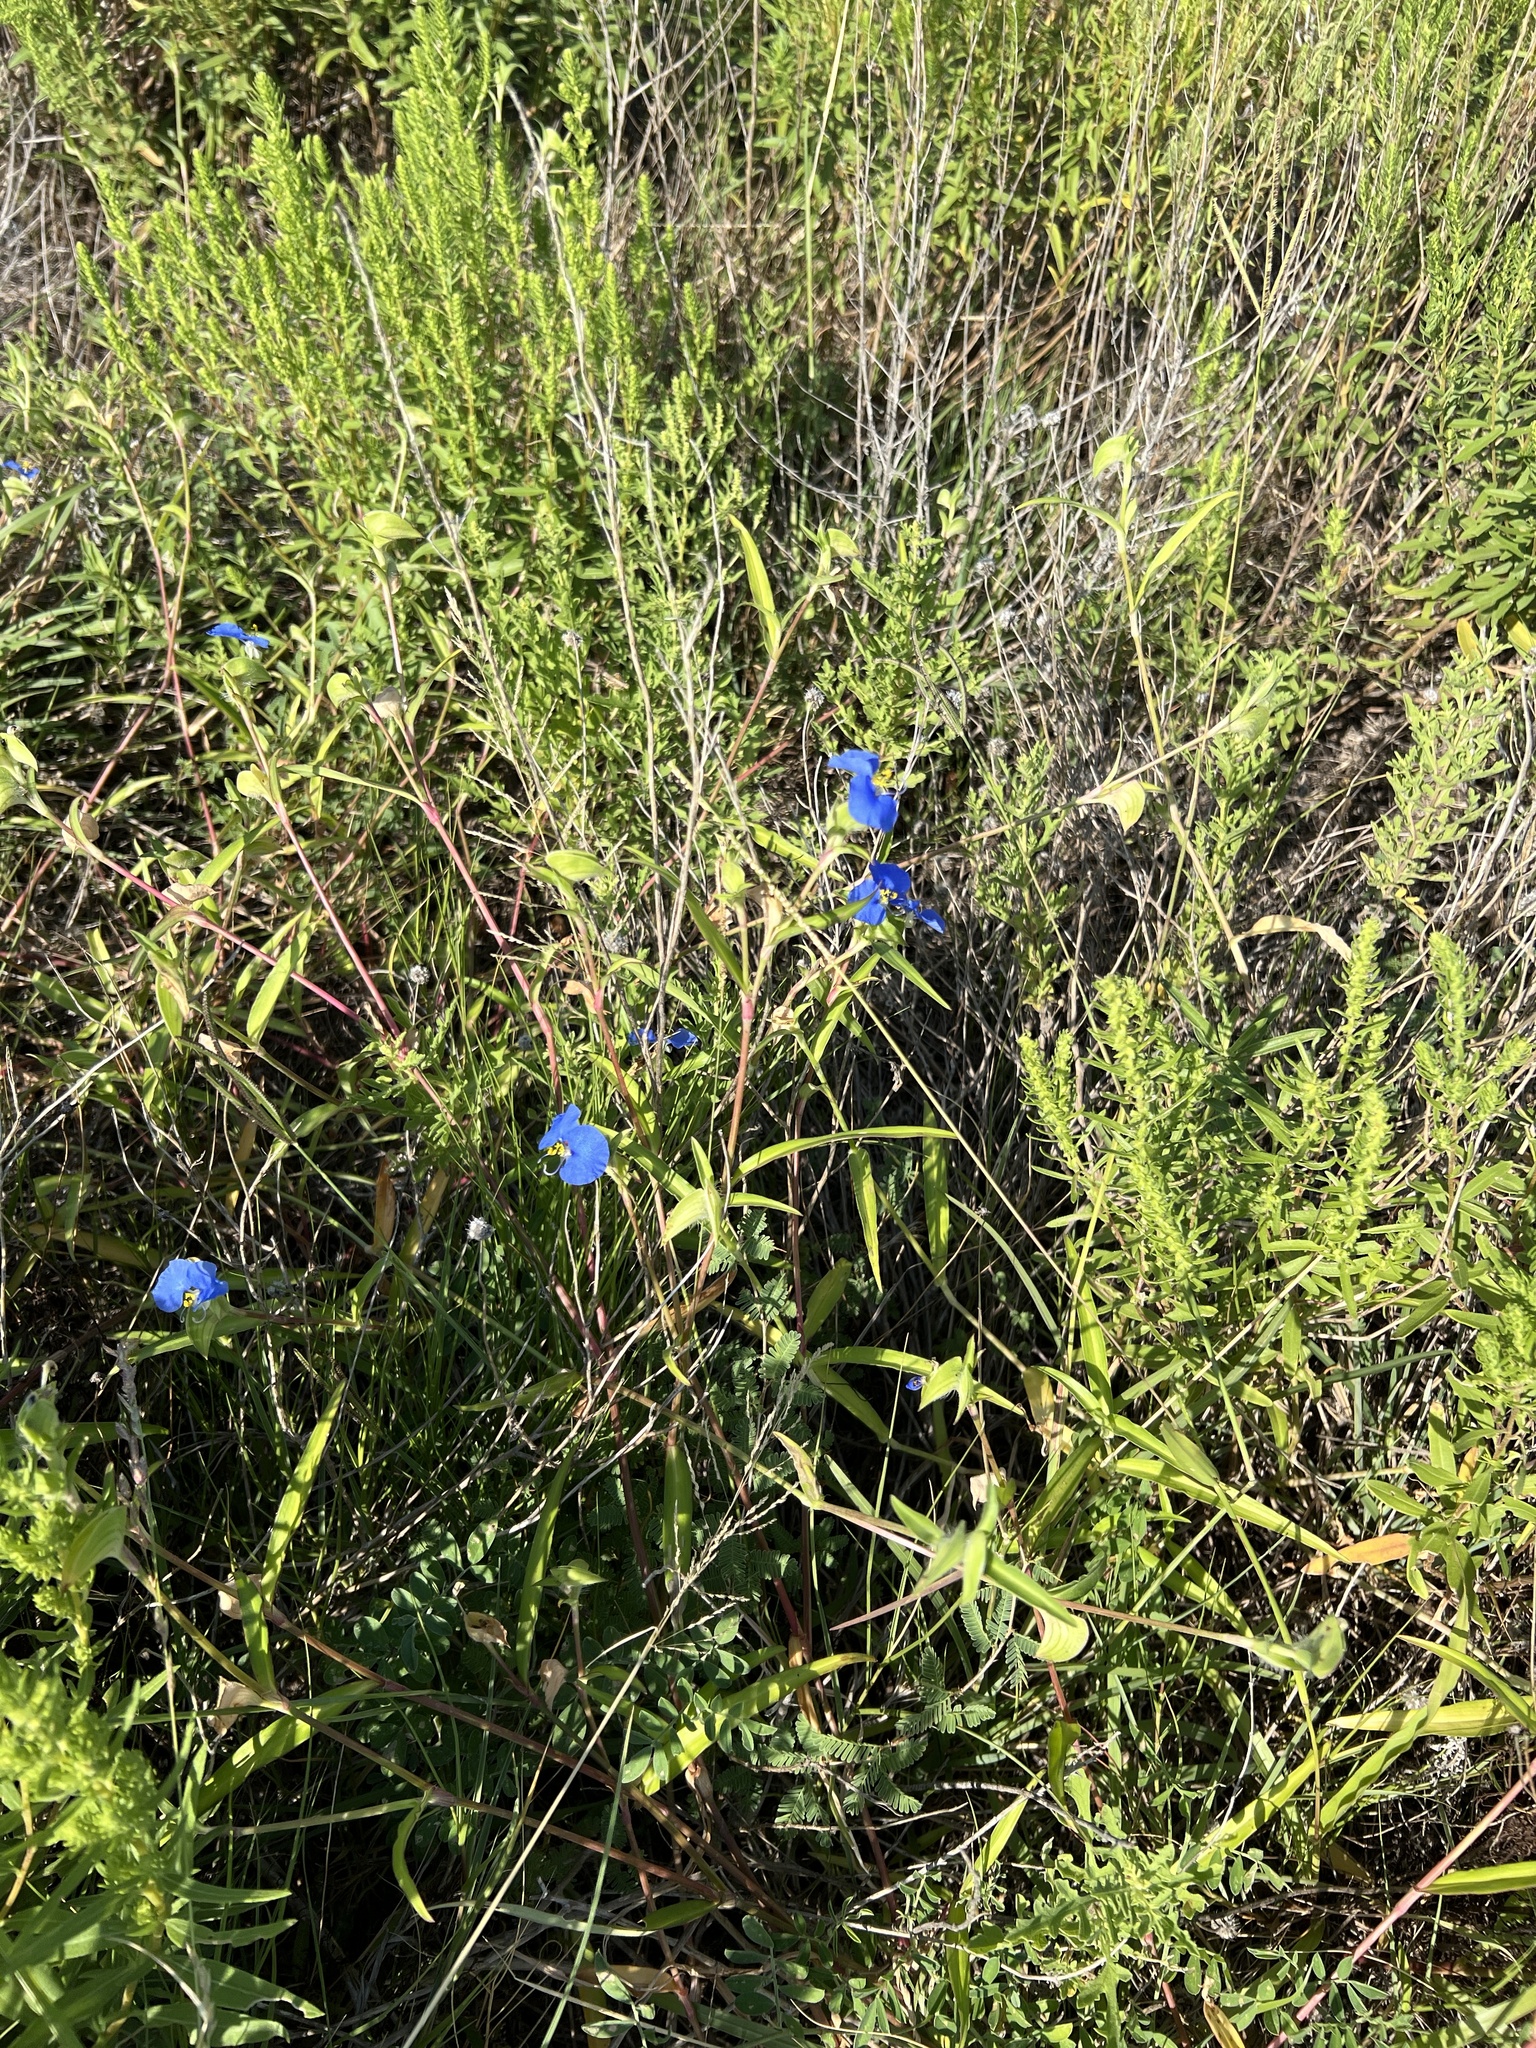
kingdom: Plantae
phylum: Tracheophyta
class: Liliopsida
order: Commelinales
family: Commelinaceae
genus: Commelina
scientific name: Commelina erecta
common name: Blousel blommetjie
